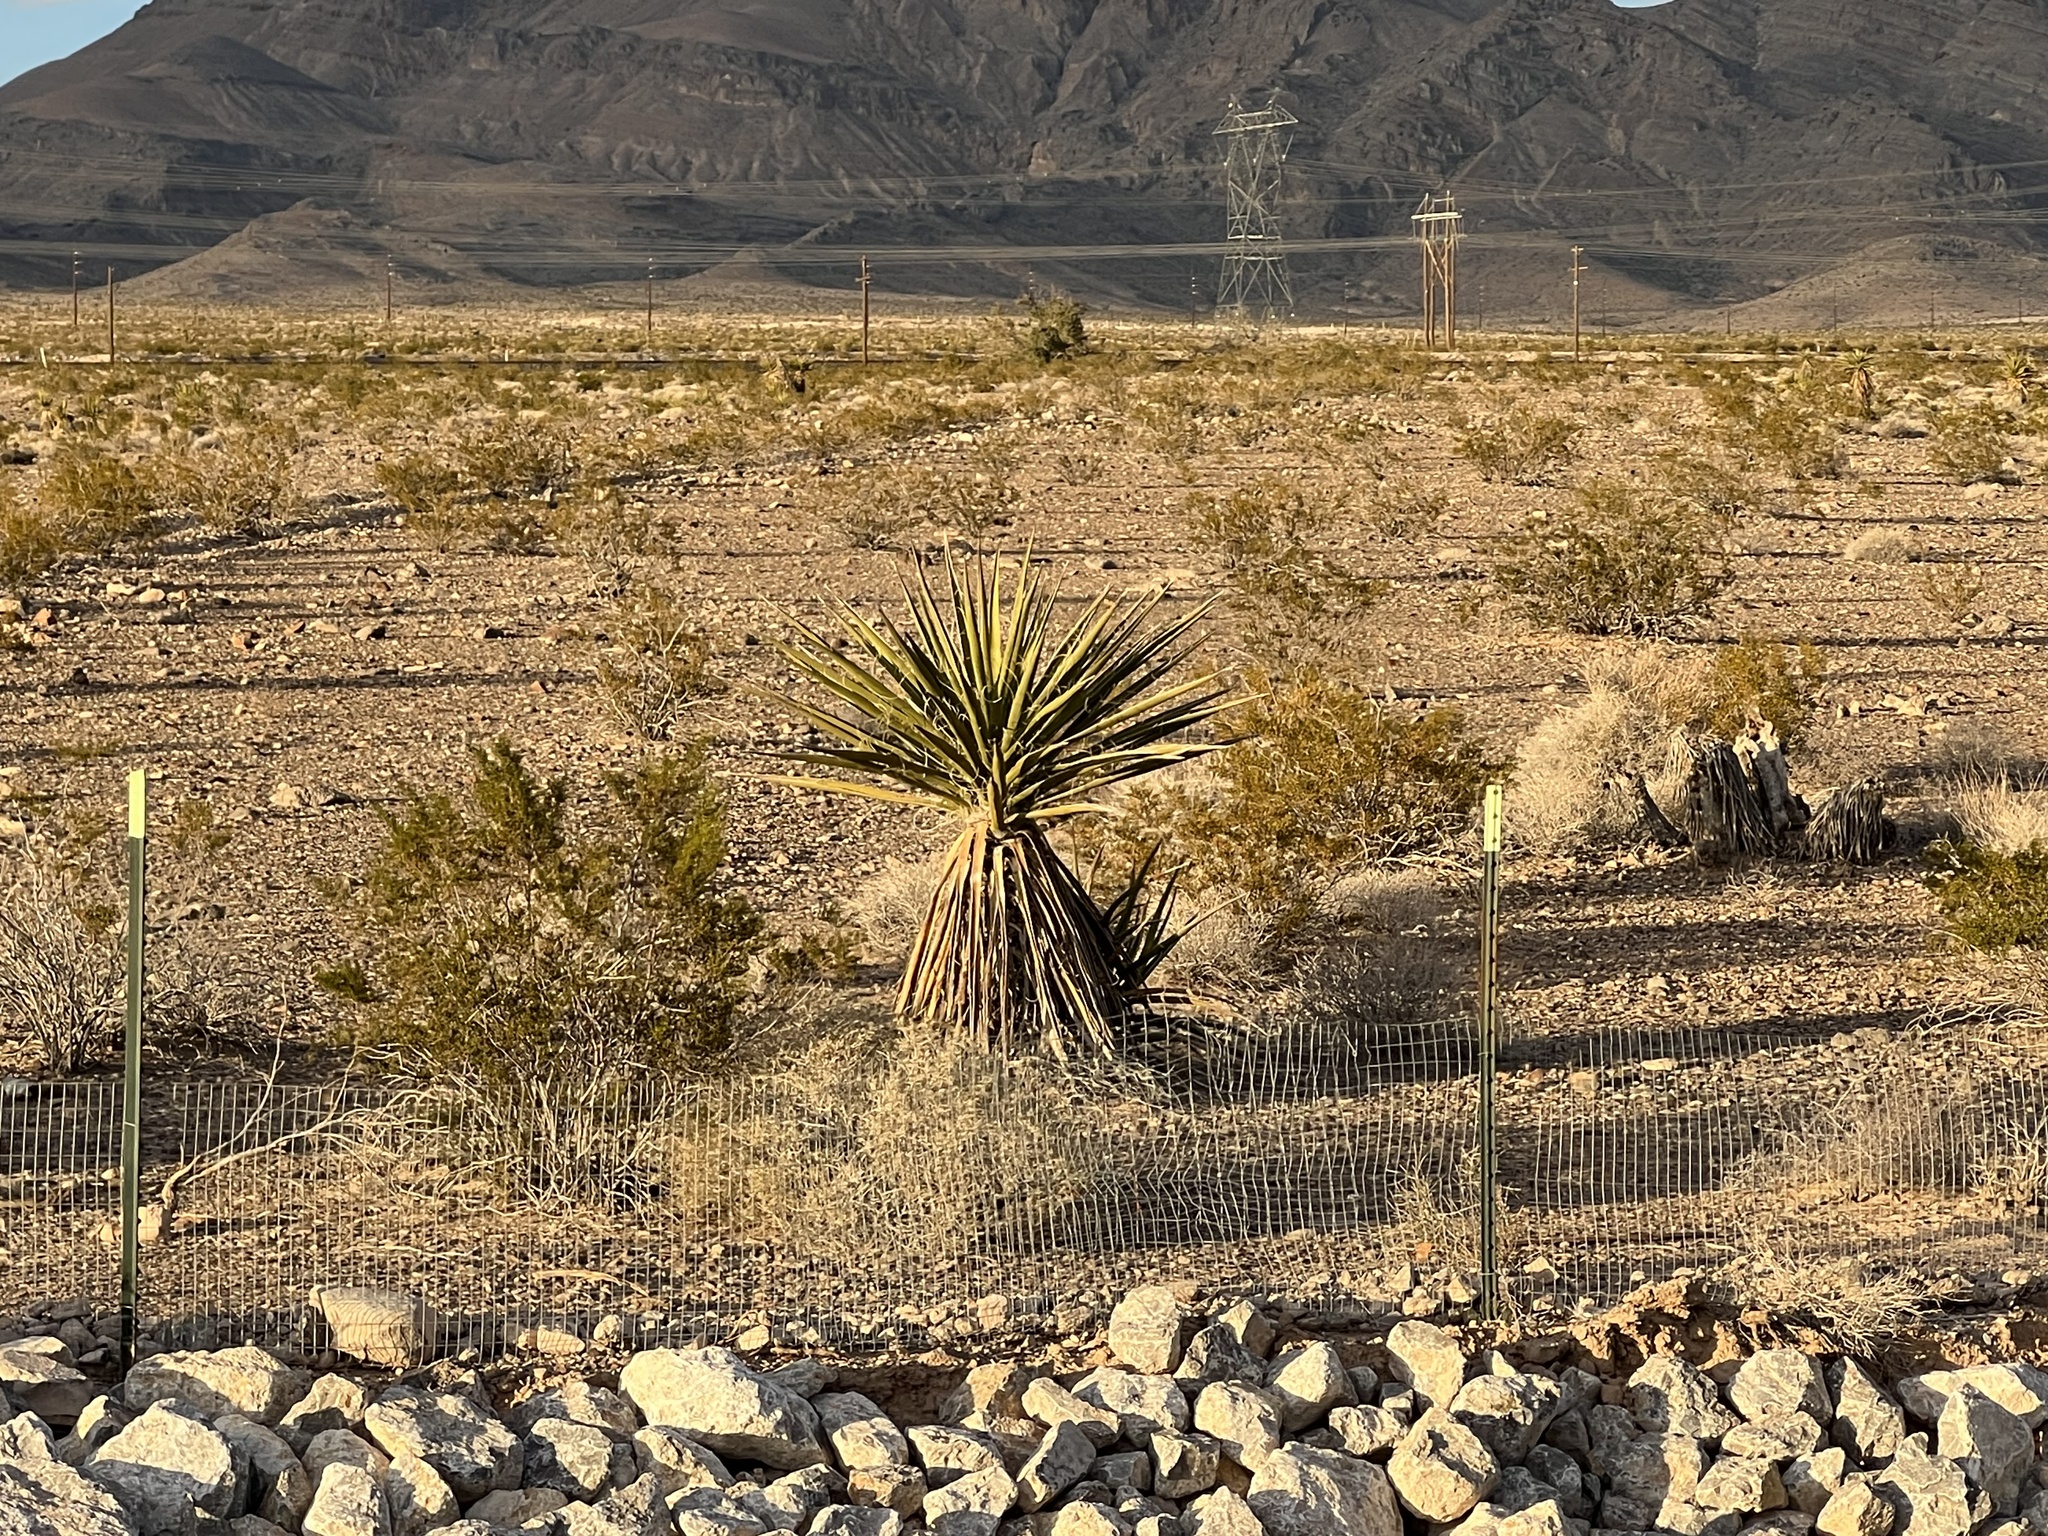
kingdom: Plantae
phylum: Tracheophyta
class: Liliopsida
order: Asparagales
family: Asparagaceae
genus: Yucca
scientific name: Yucca schidigera
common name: Mojave yucca
